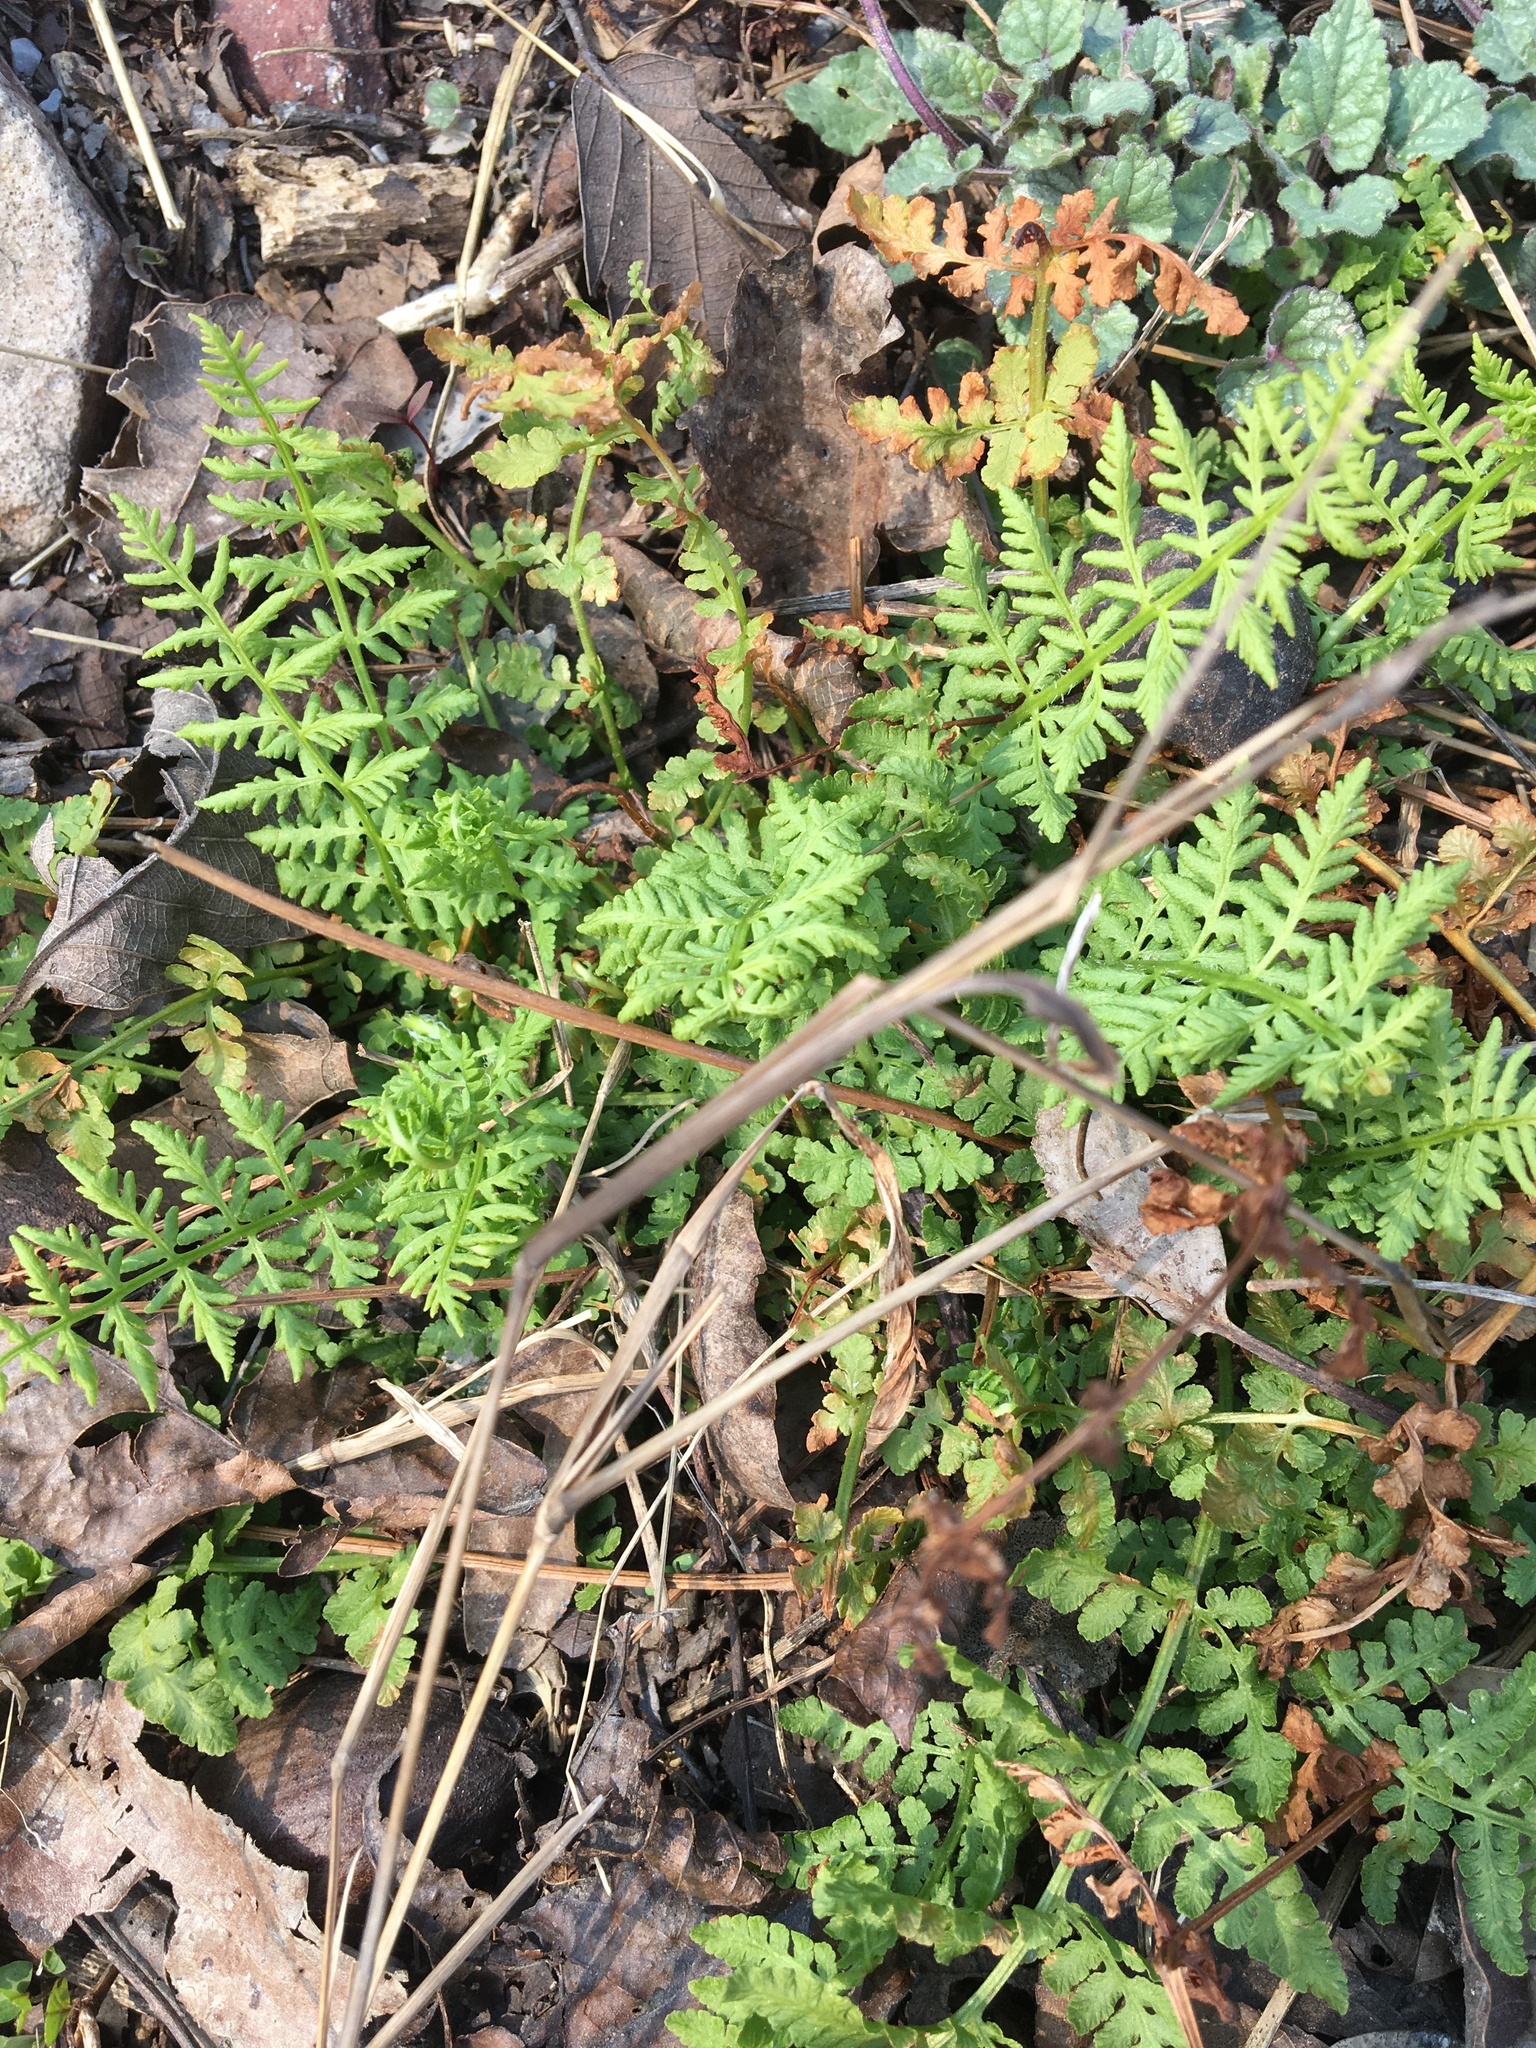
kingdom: Plantae
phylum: Tracheophyta
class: Polypodiopsida
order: Polypodiales
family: Woodsiaceae
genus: Physematium
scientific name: Physematium obtusum
